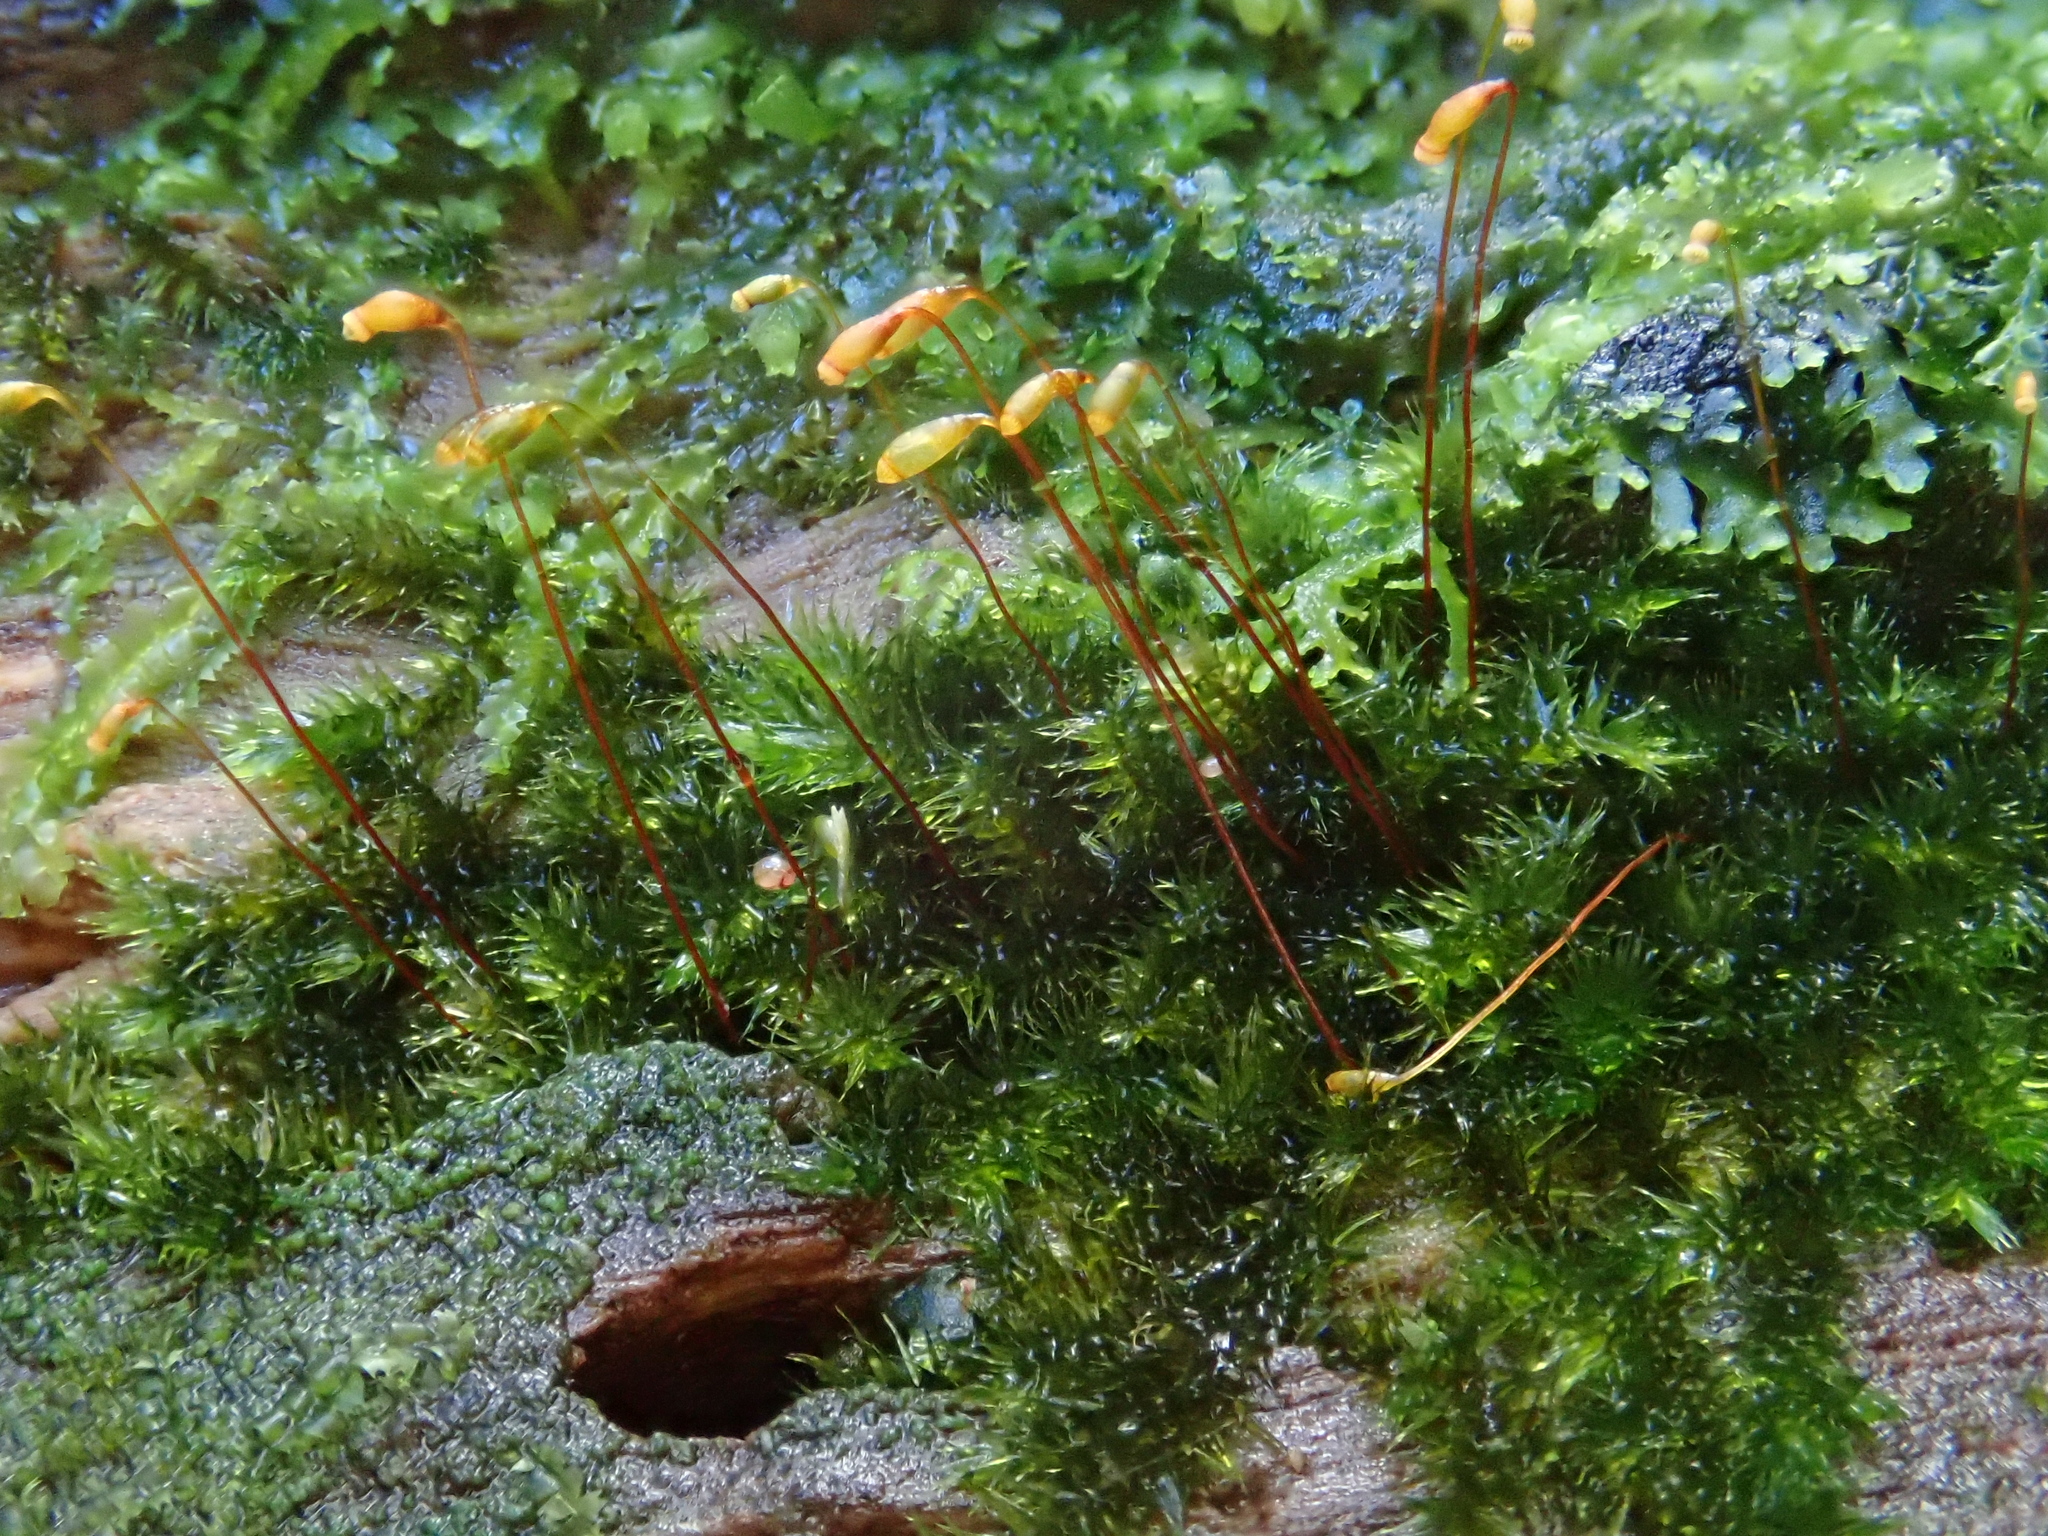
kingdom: Plantae
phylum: Bryophyta
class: Bryopsida
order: Hypnales
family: Sematophyllaceae
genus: Sematophyllum
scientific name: Sematophyllum substrumulosum
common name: Bark signal-moss
